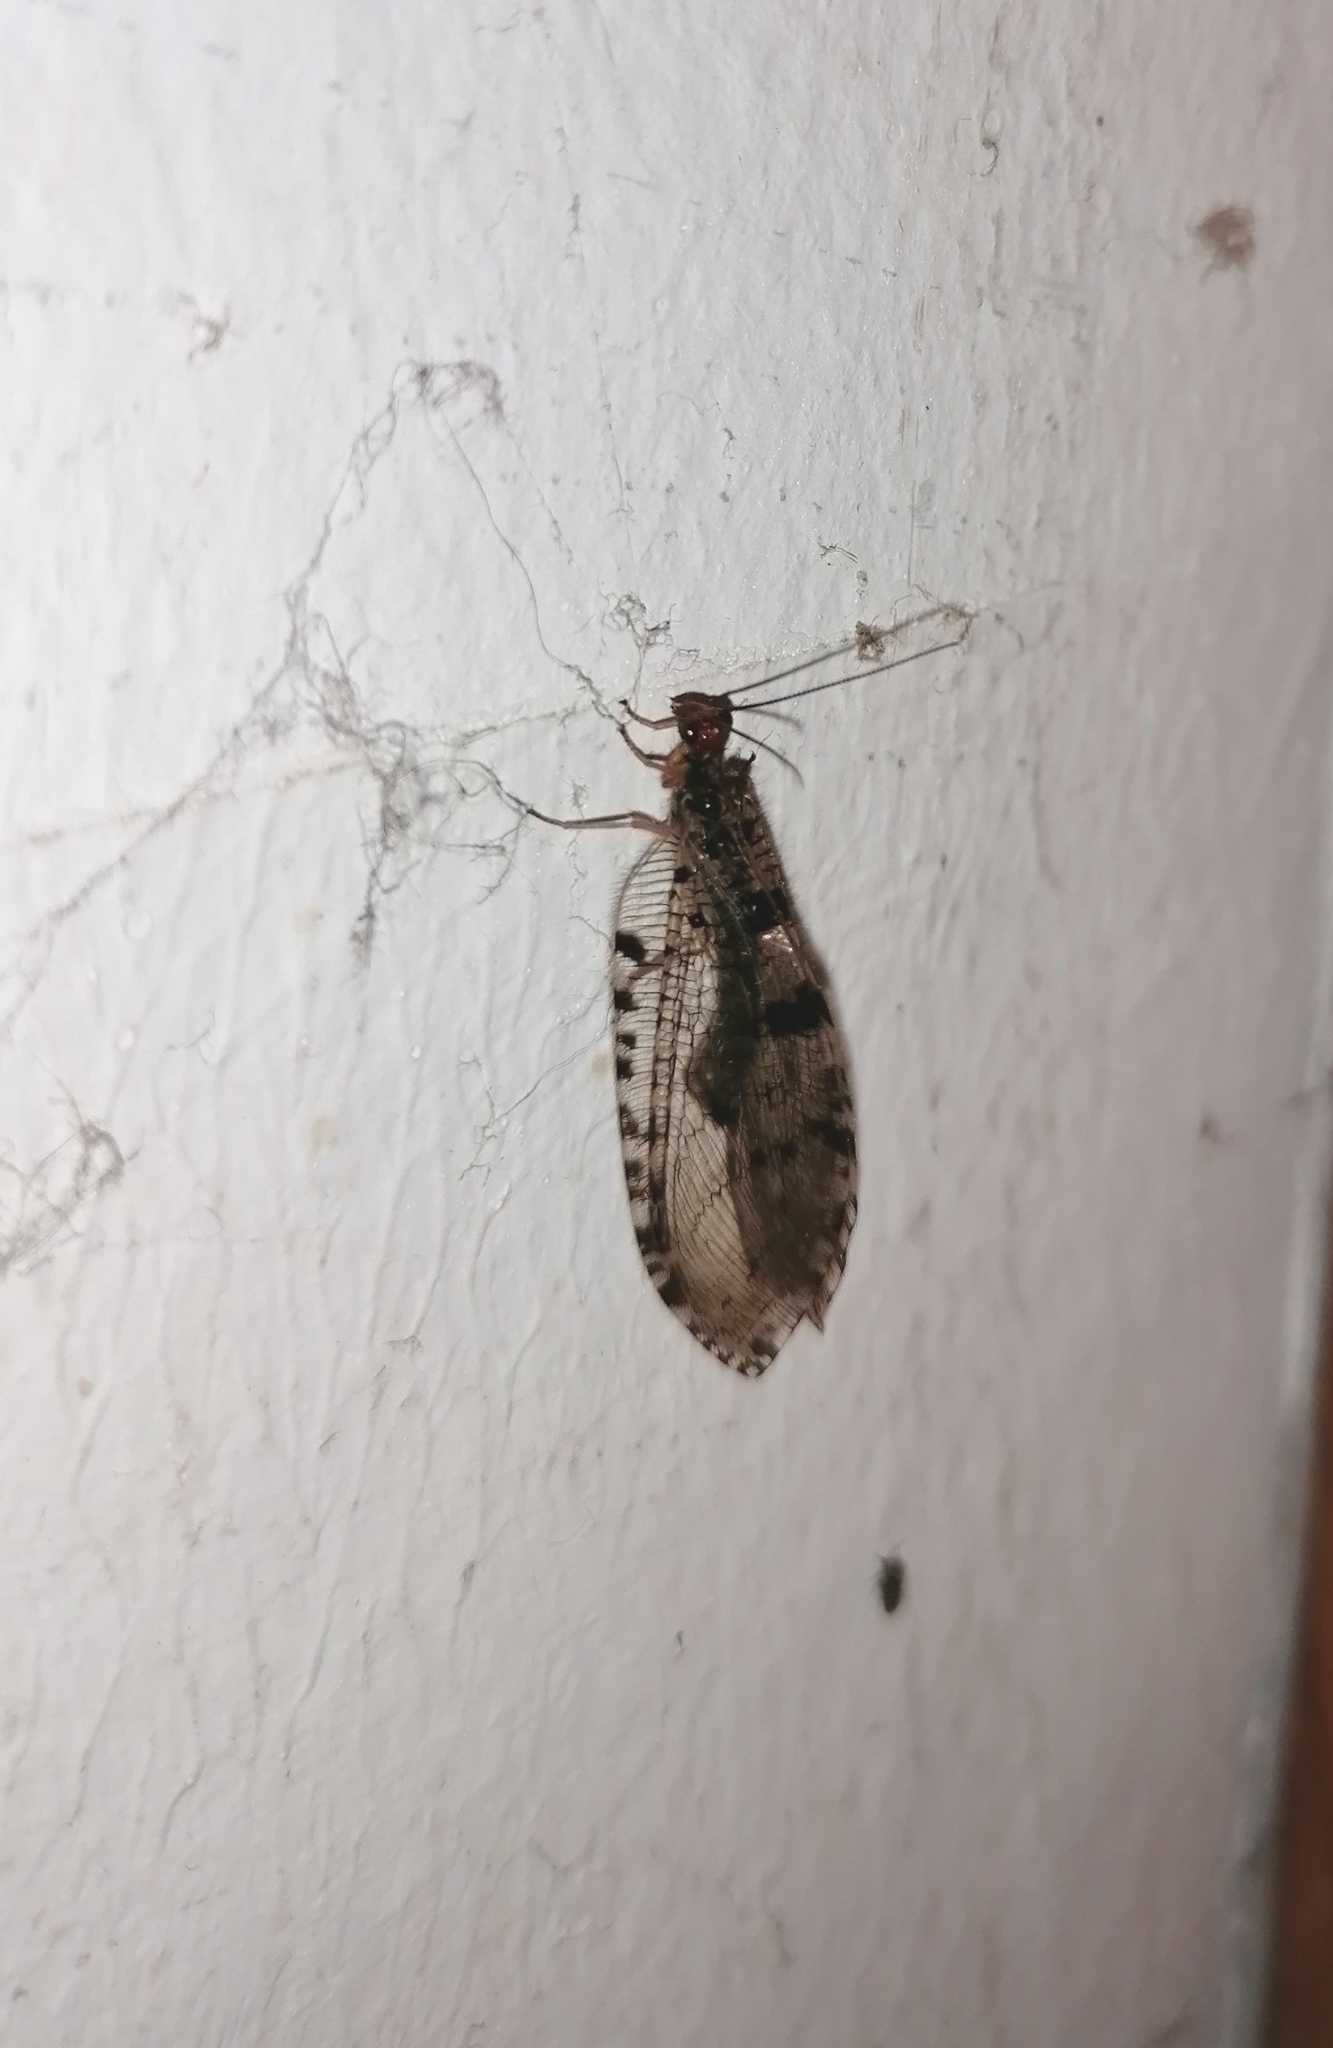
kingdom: Animalia
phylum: Arthropoda
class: Insecta
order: Neuroptera
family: Osmylidae
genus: Osmylus
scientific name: Osmylus fulvicephalus
